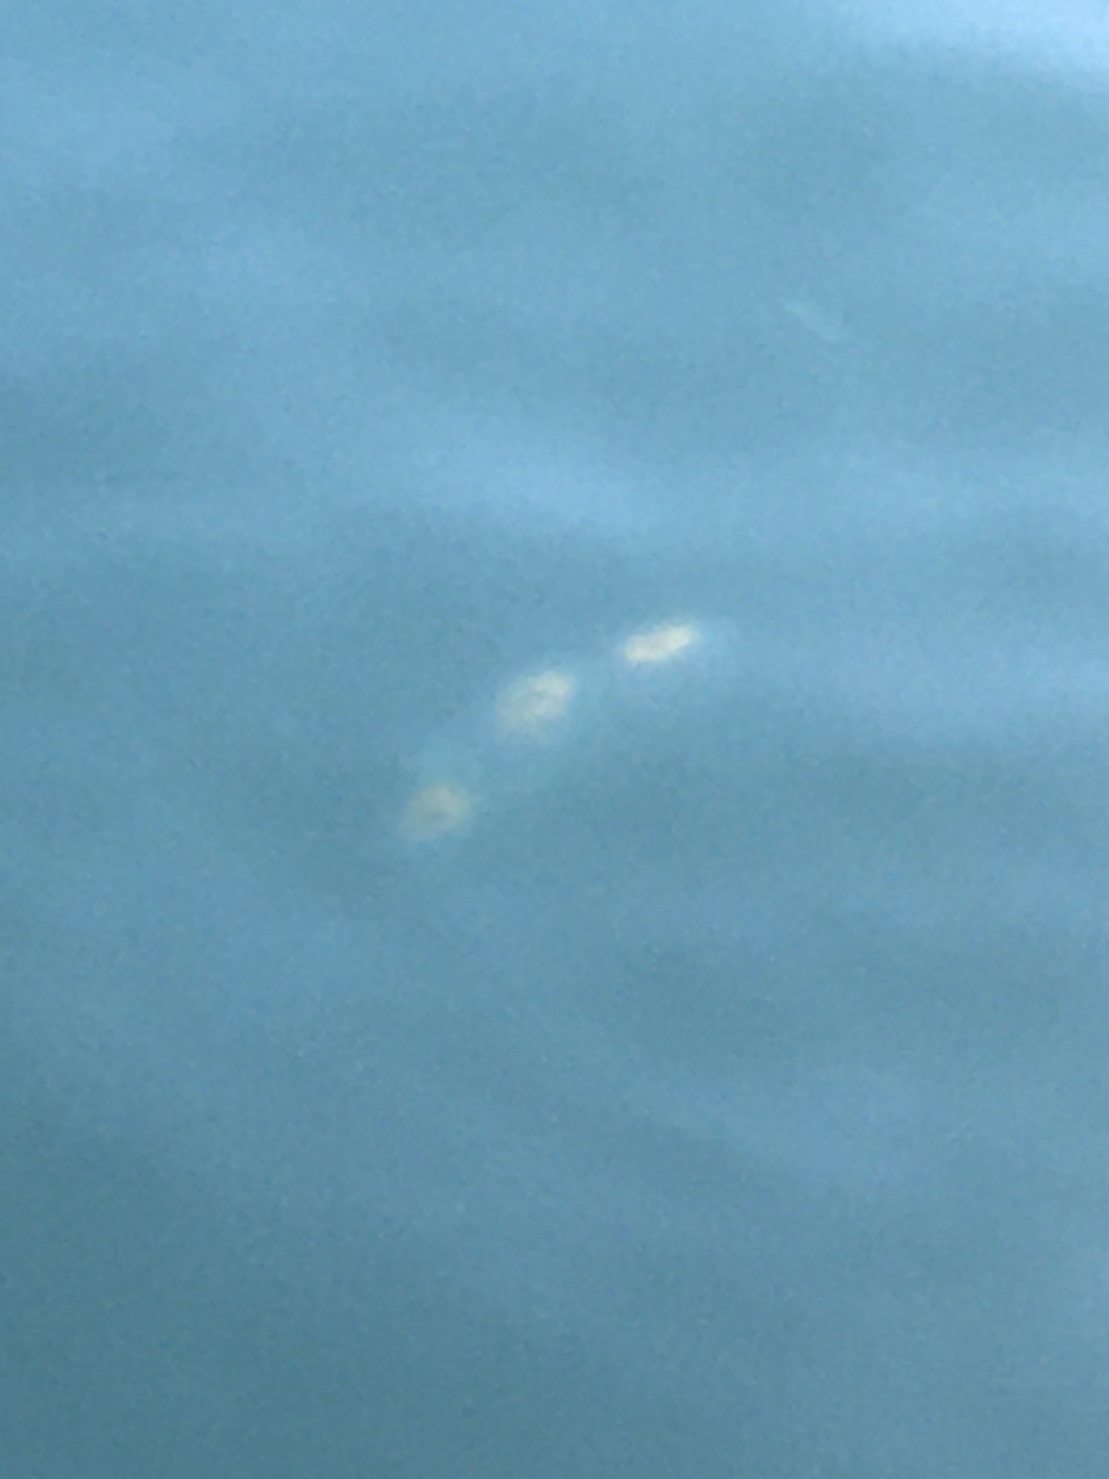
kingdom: Animalia
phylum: Chordata
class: Thaliacea
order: Salpida
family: Salpidae
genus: Cyclosalpa
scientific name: Cyclosalpa affinis
